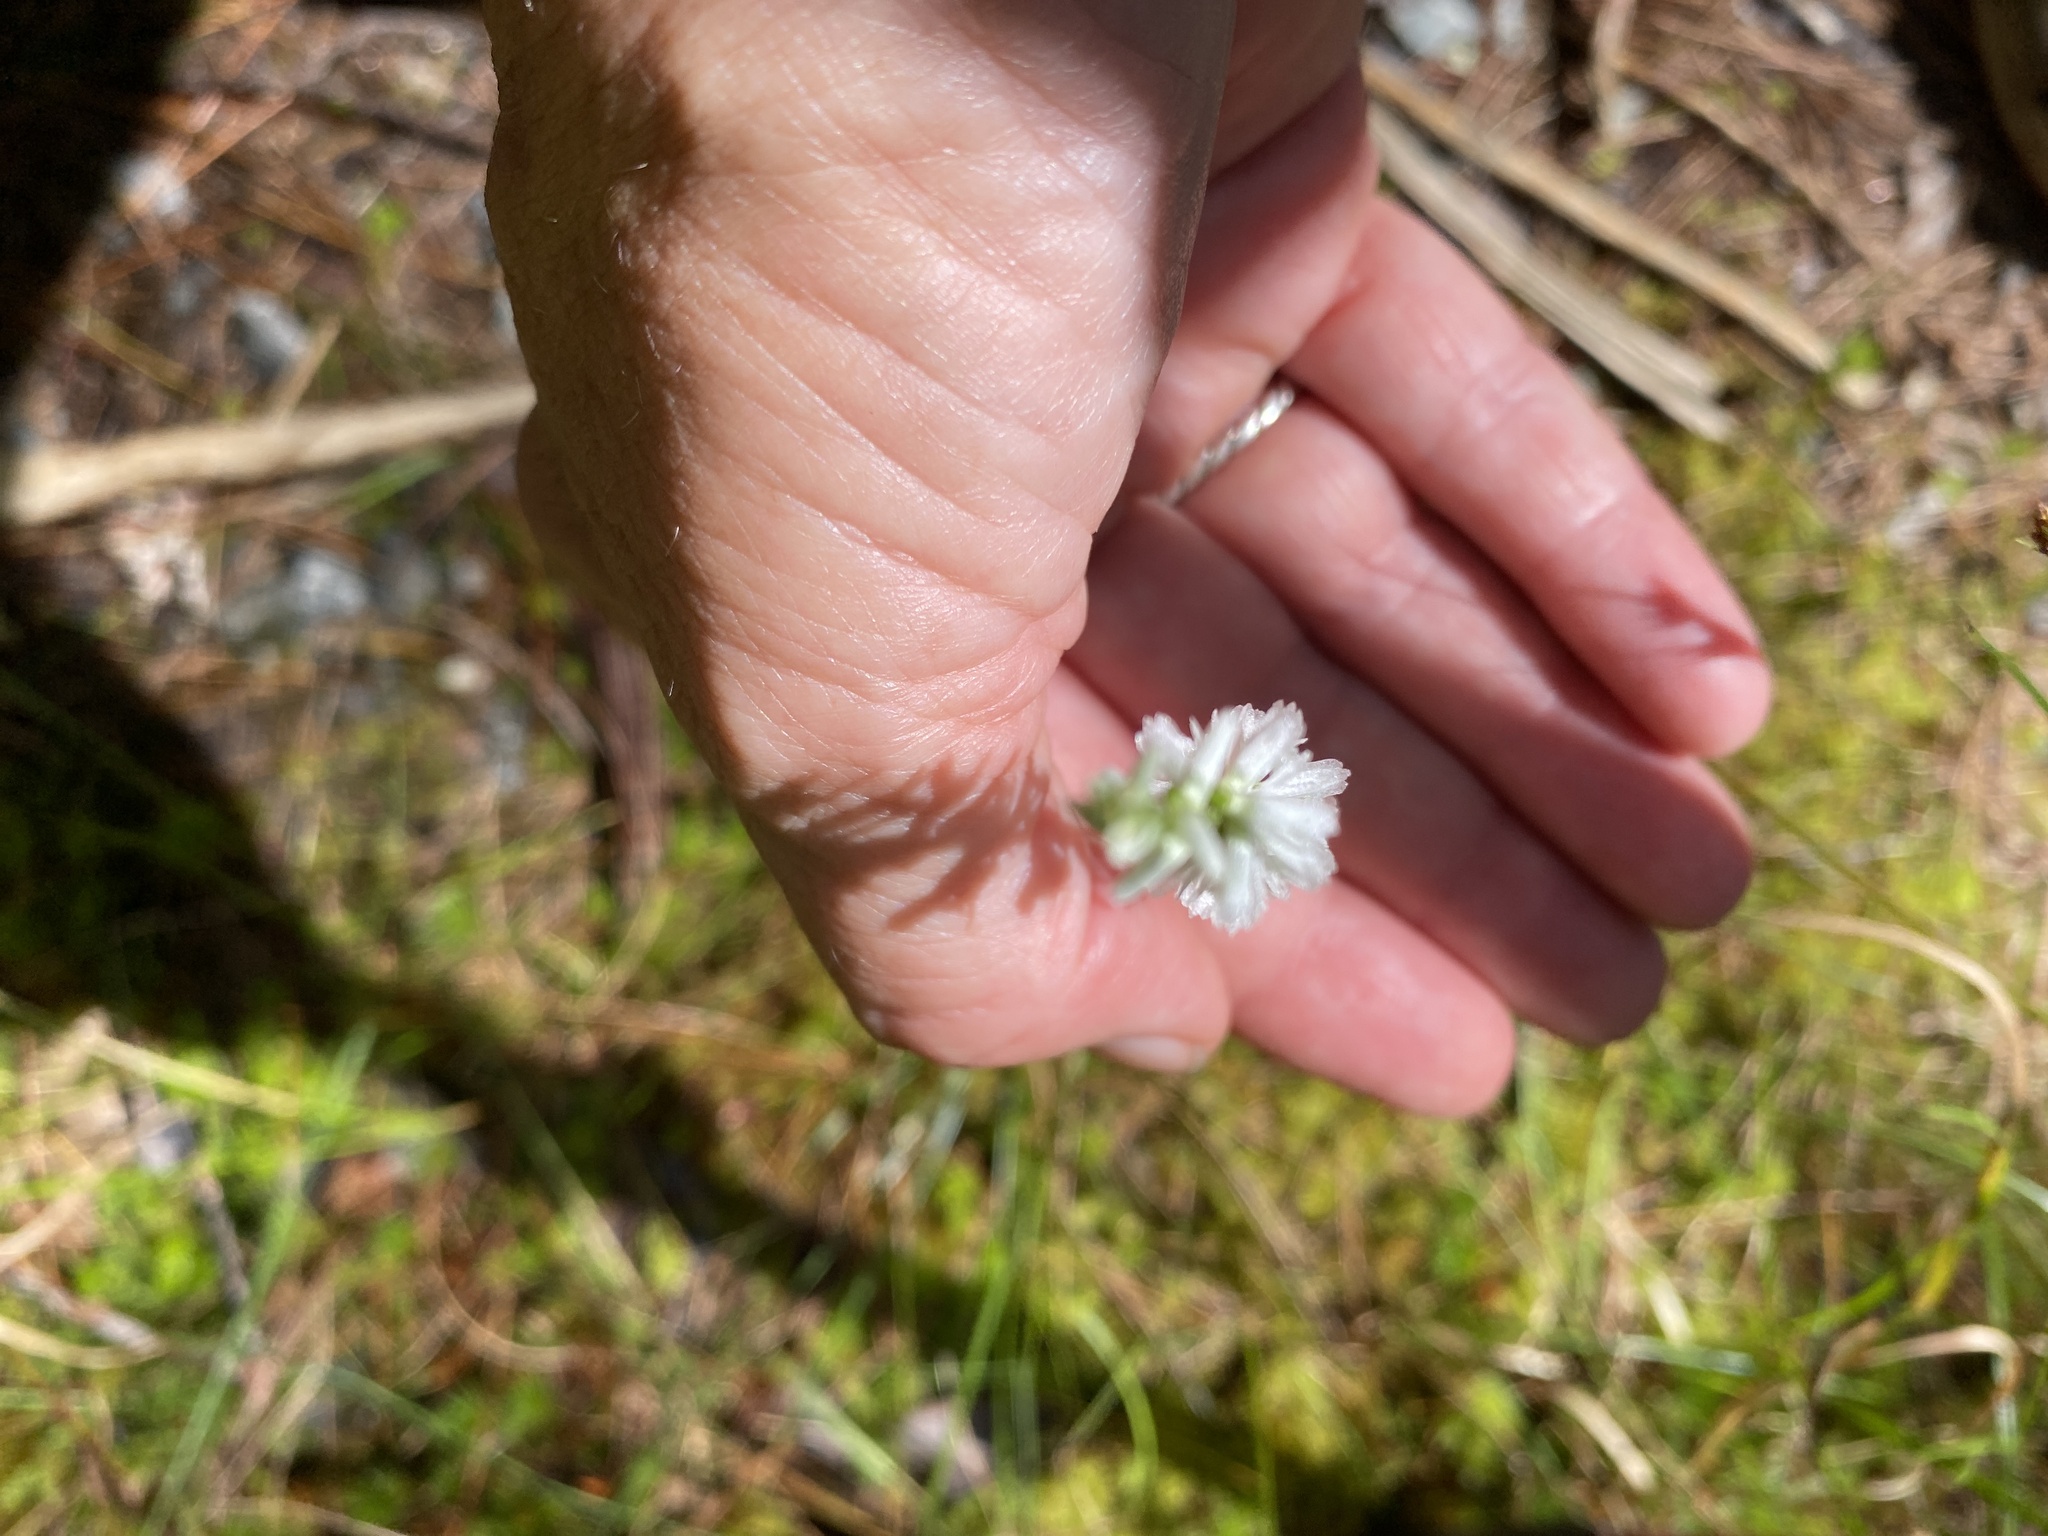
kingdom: Plantae
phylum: Tracheophyta
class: Liliopsida
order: Asparagales
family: Orchidaceae
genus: Spiranthes
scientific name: Spiranthes lacera
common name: Northern slender ladies'-tresses
